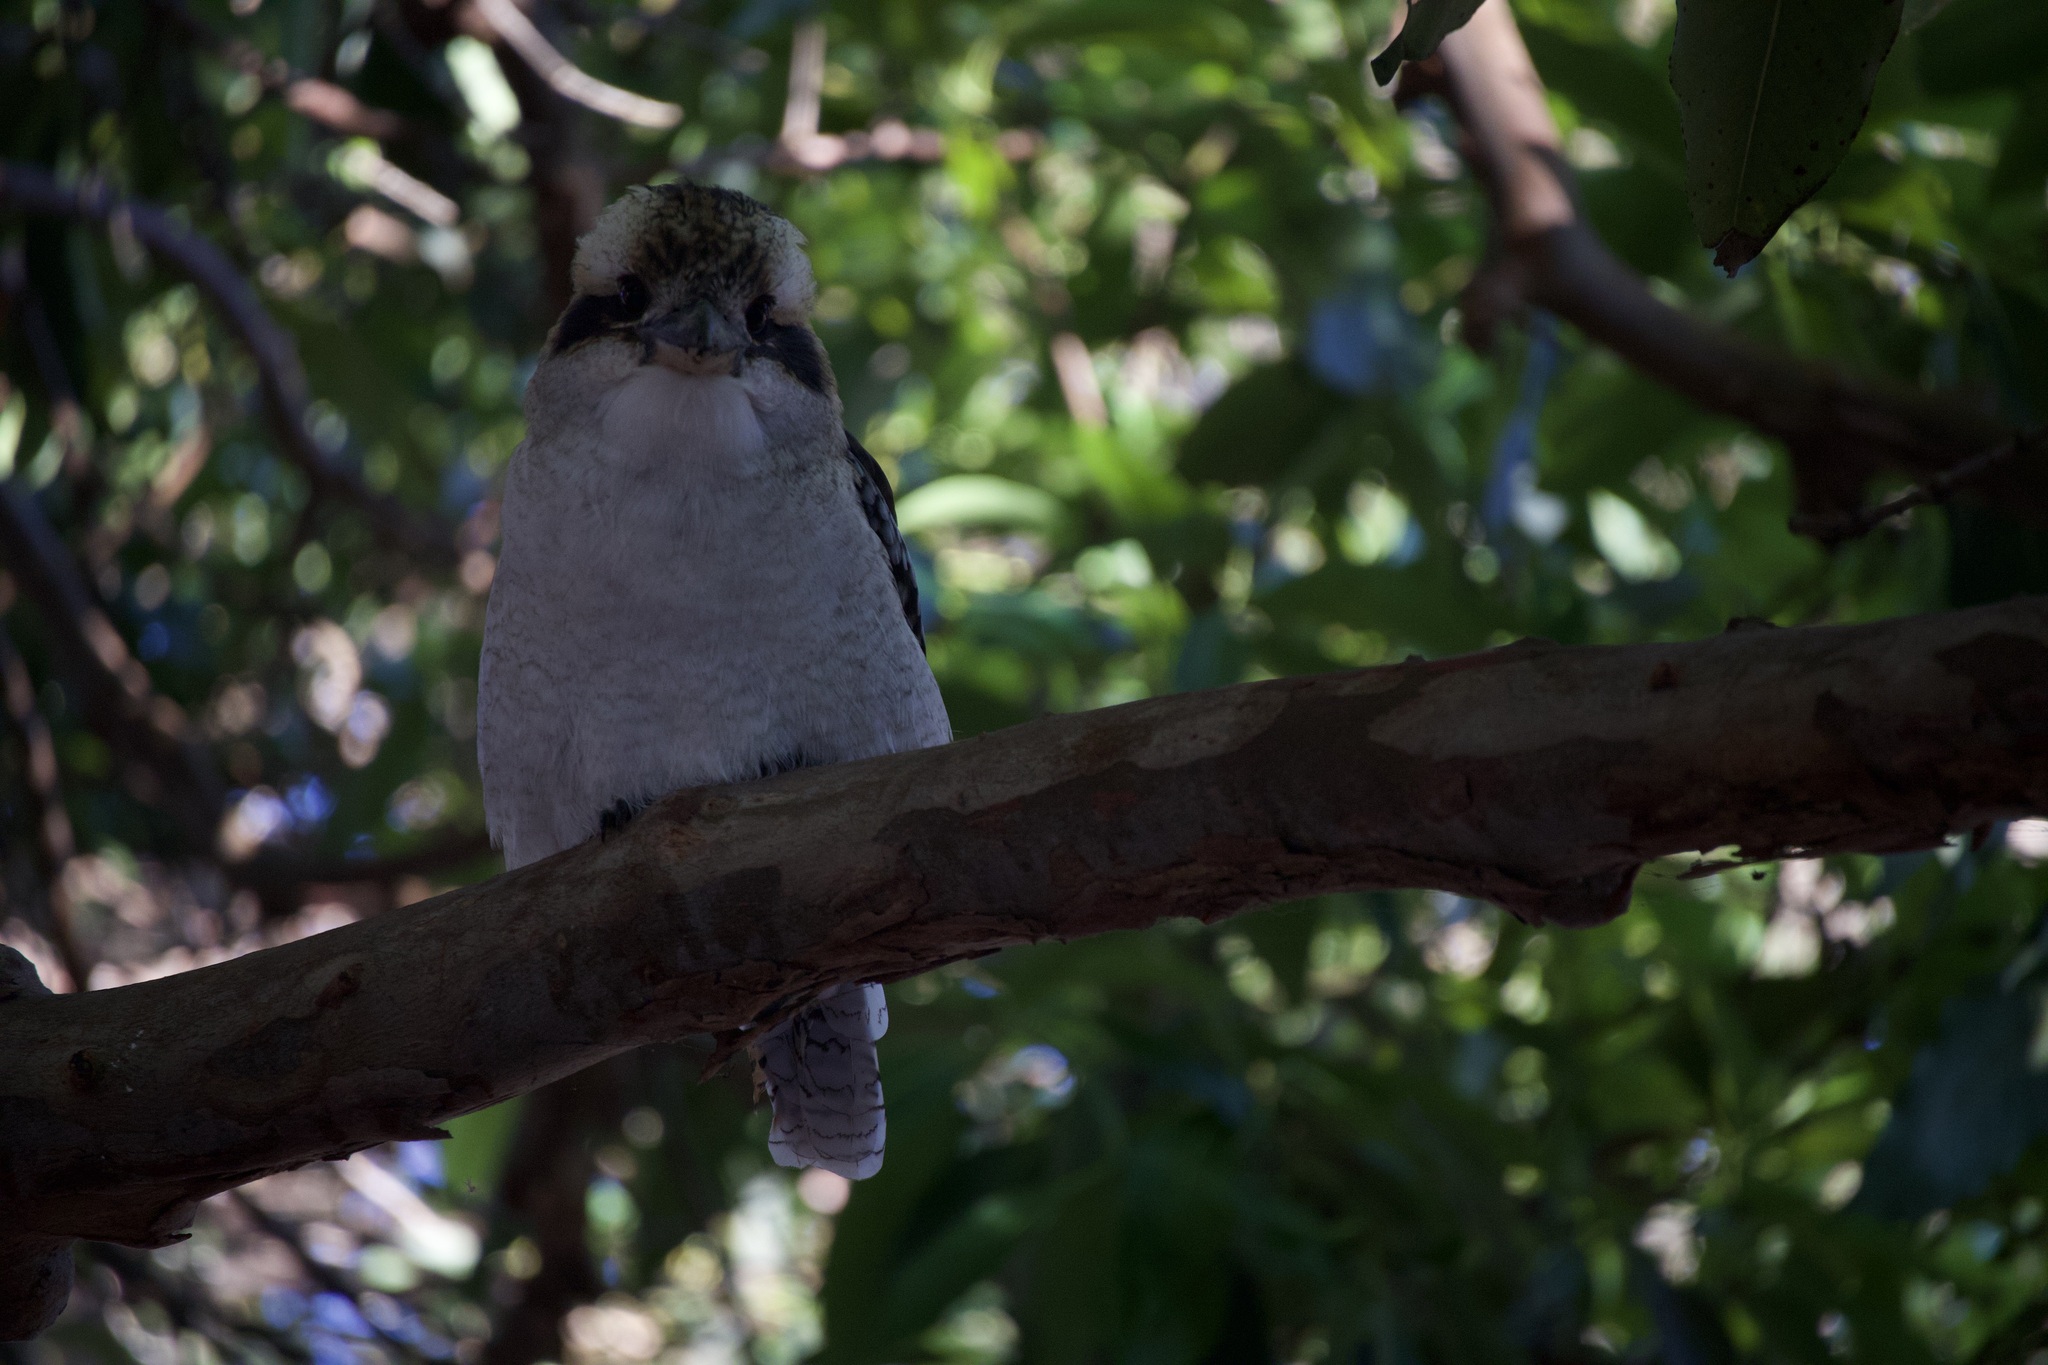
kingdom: Animalia
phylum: Chordata
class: Aves
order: Coraciiformes
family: Alcedinidae
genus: Dacelo
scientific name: Dacelo novaeguineae
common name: Laughing kookaburra
